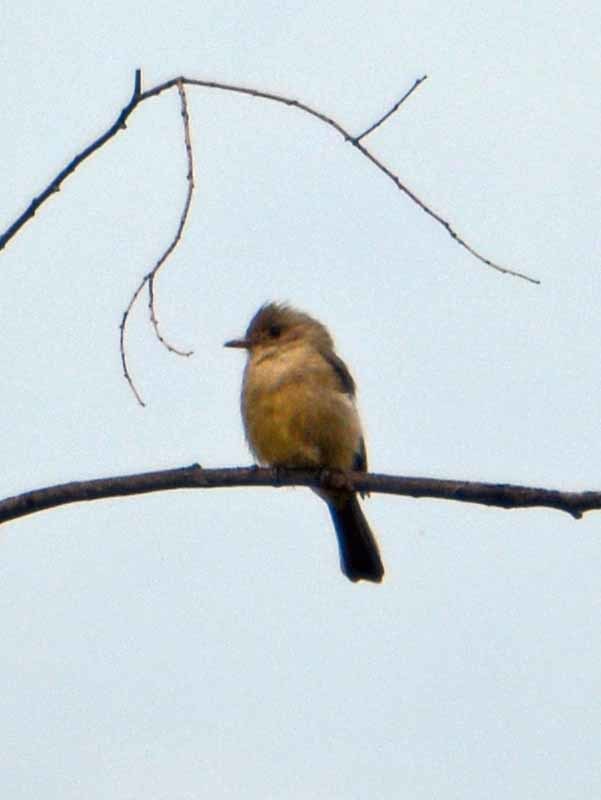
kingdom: Animalia
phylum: Chordata
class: Aves
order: Passeriformes
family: Tyrannidae
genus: Empidonax
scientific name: Empidonax fulvifrons
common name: Buff-breasted flycatcher
